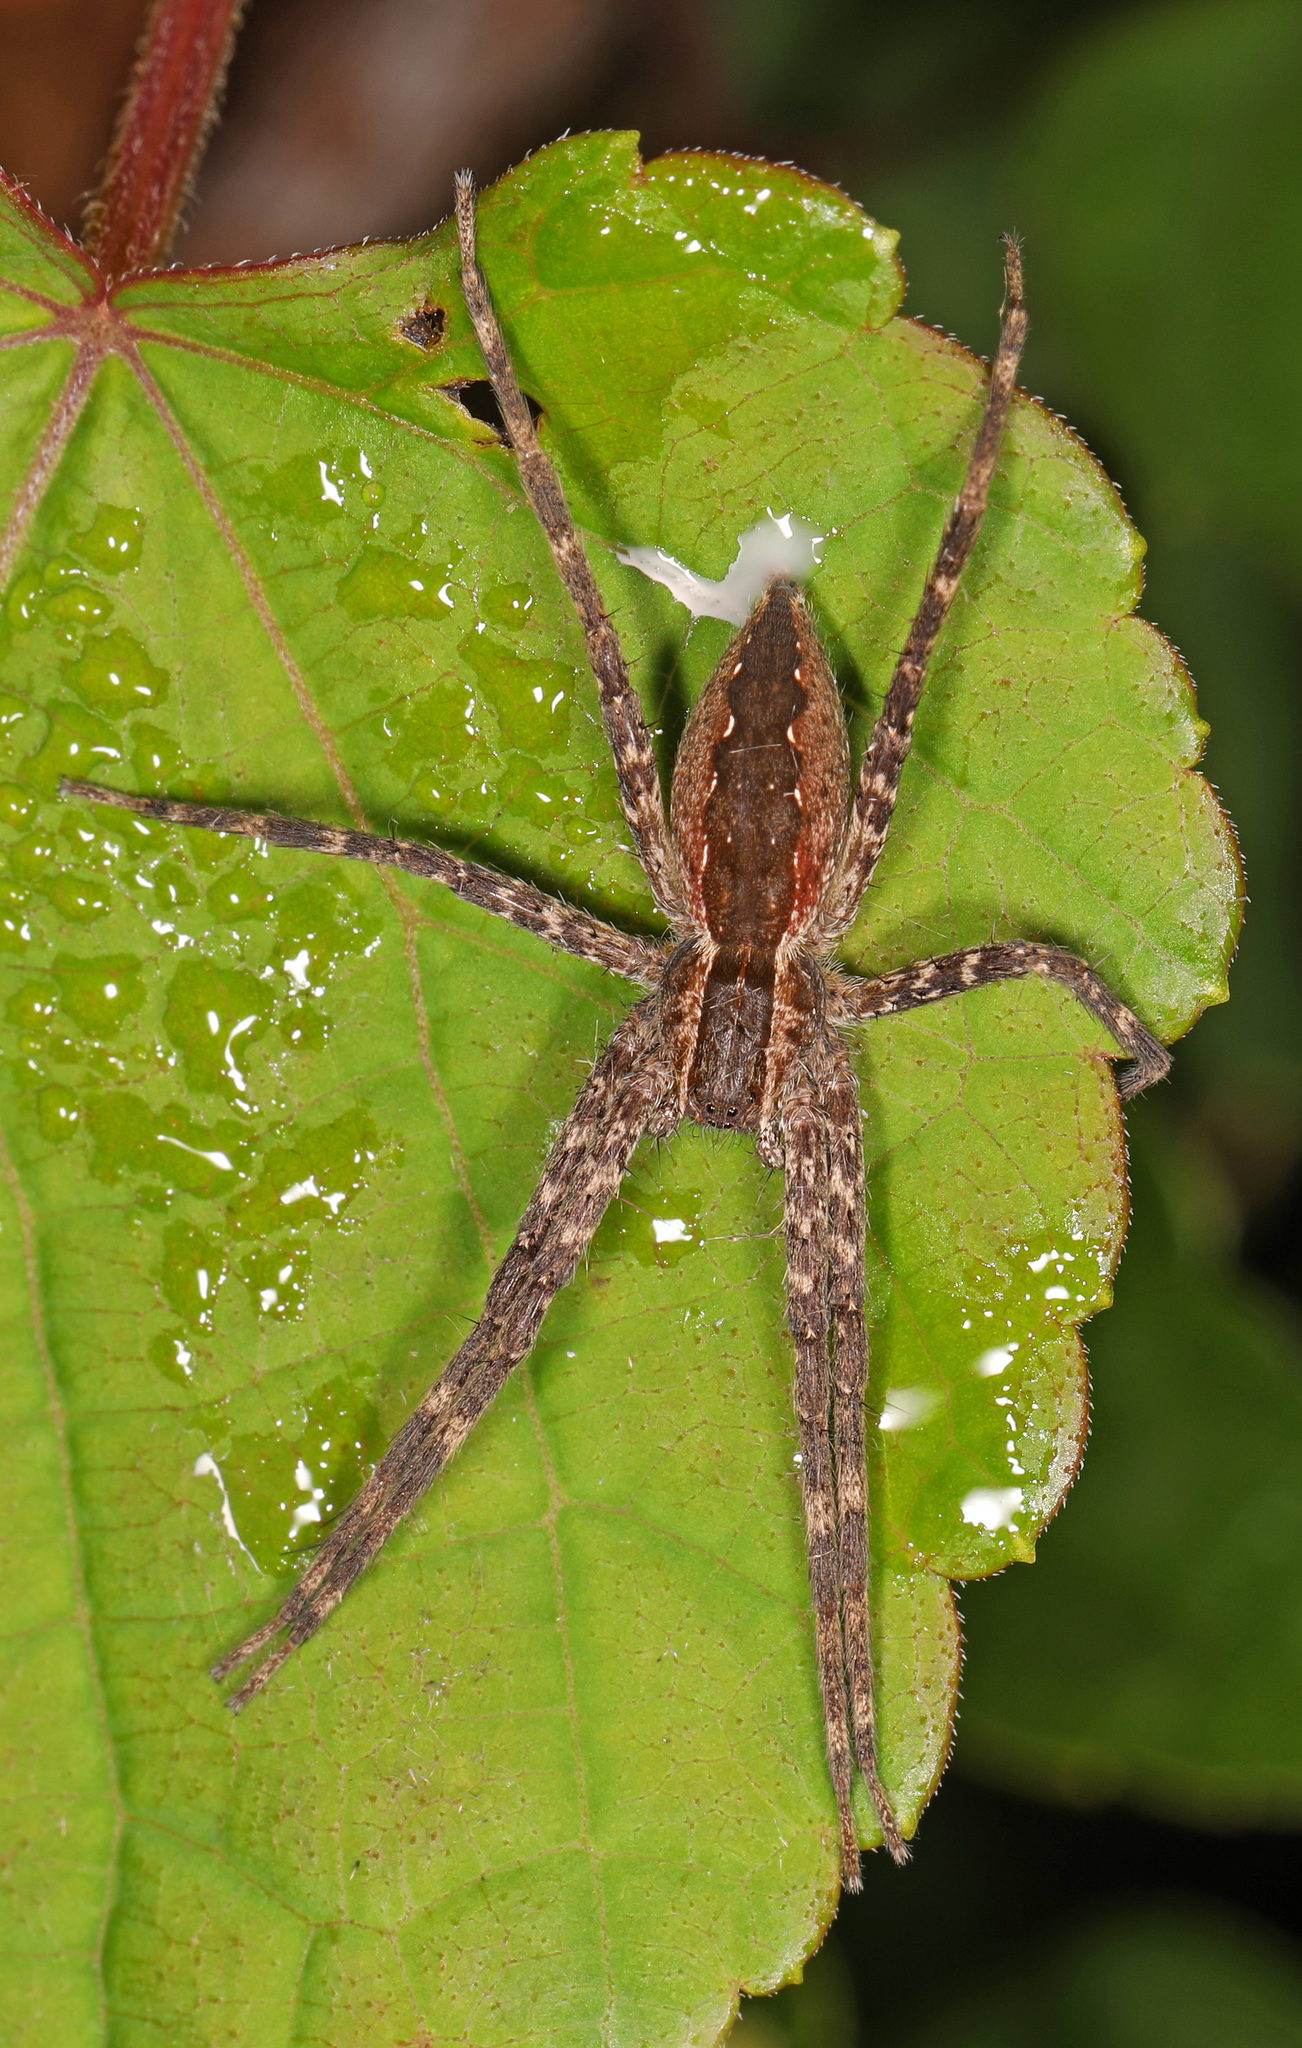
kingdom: Animalia
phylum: Arthropoda
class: Arachnida
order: Araneae
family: Pisauridae
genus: Pisaurina
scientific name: Pisaurina mira
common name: American nursery web spider
